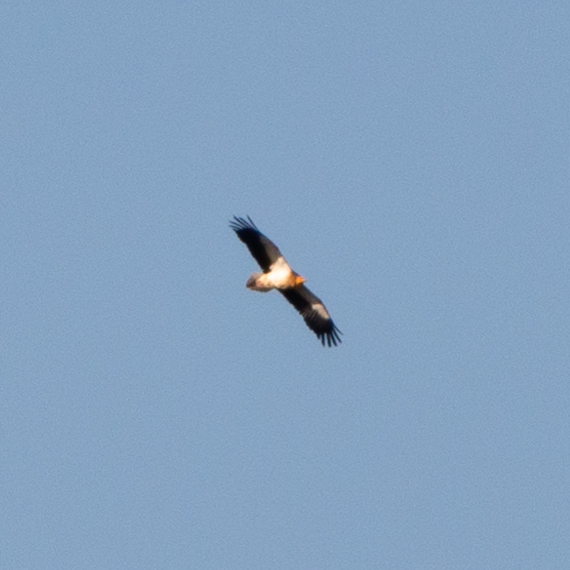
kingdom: Animalia
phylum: Chordata
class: Aves
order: Accipitriformes
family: Accipitridae
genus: Neophron
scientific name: Neophron percnopterus
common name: Egyptian vulture
